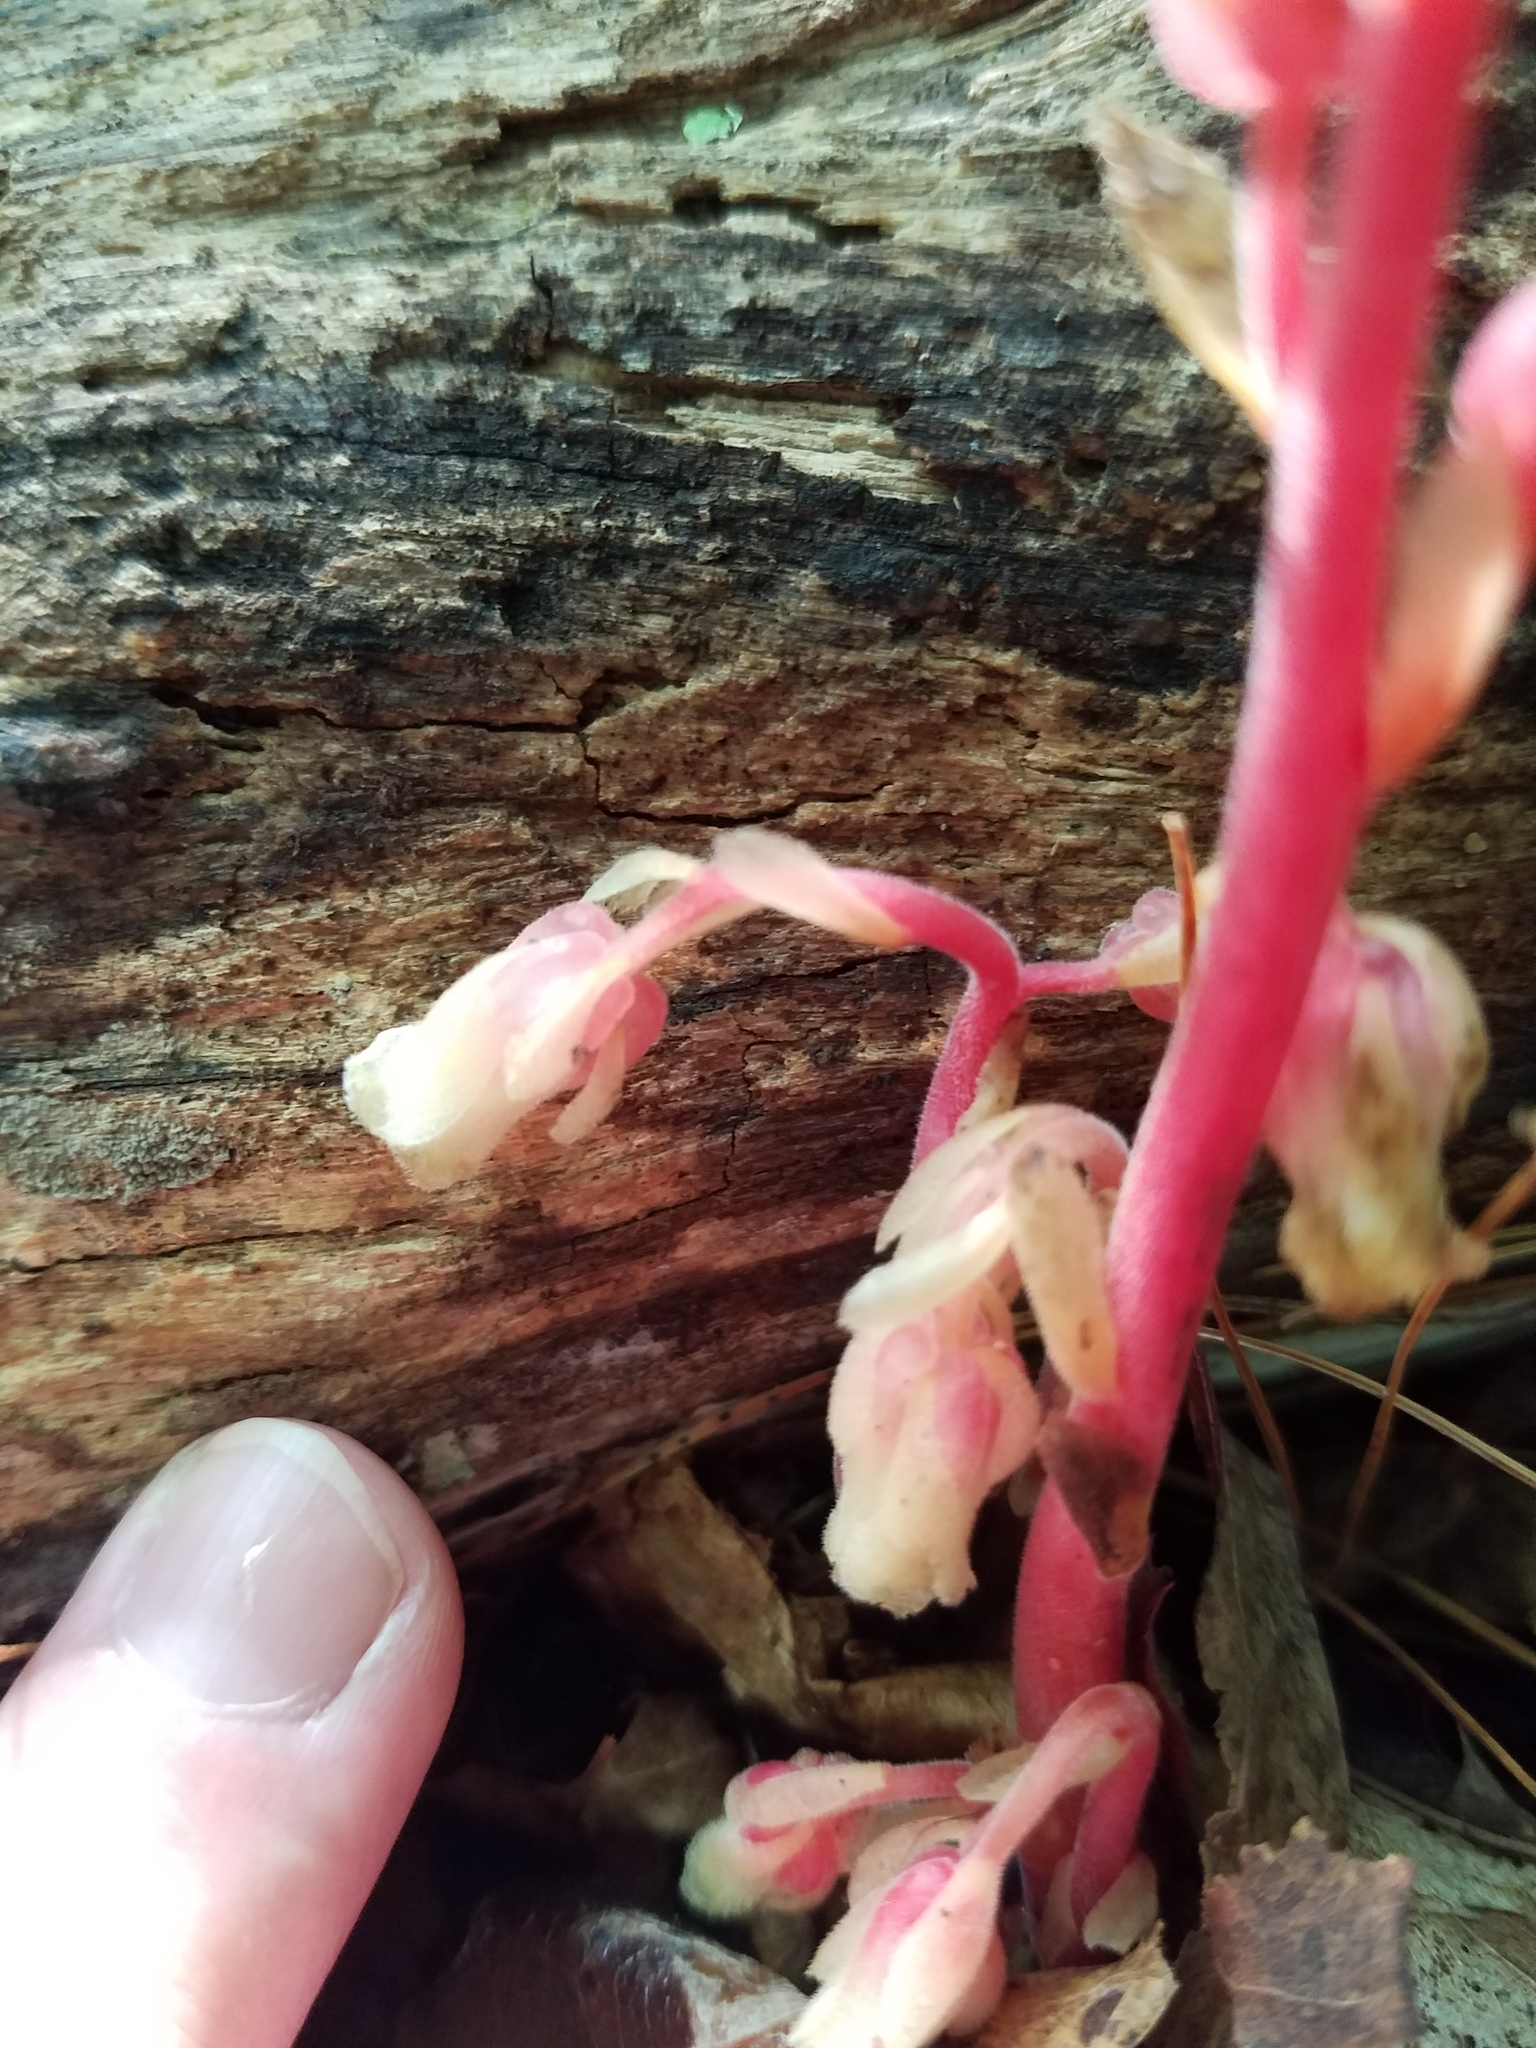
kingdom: Plantae
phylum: Tracheophyta
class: Magnoliopsida
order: Ericales
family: Ericaceae
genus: Hypopitys
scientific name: Hypopitys monotropa
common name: Yellow bird's-nest
